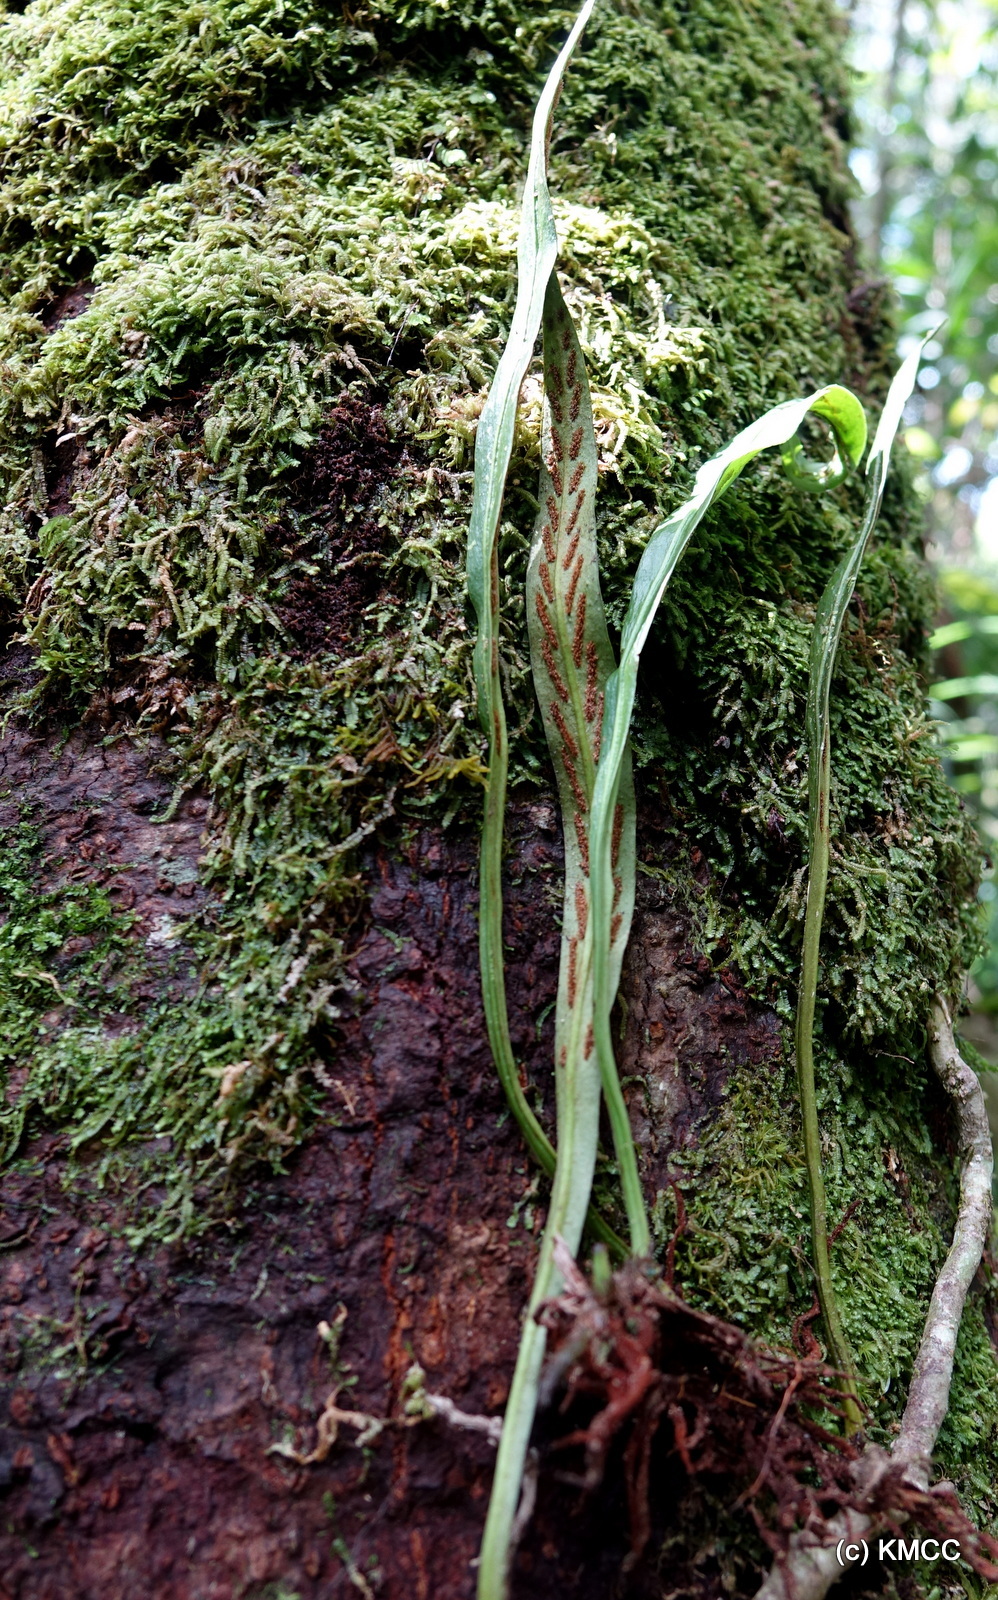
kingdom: Plantae
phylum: Tracheophyta
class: Polypodiopsida
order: Polypodiales
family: Polypodiaceae
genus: Loxogramme
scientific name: Loxogramme lanceolata
